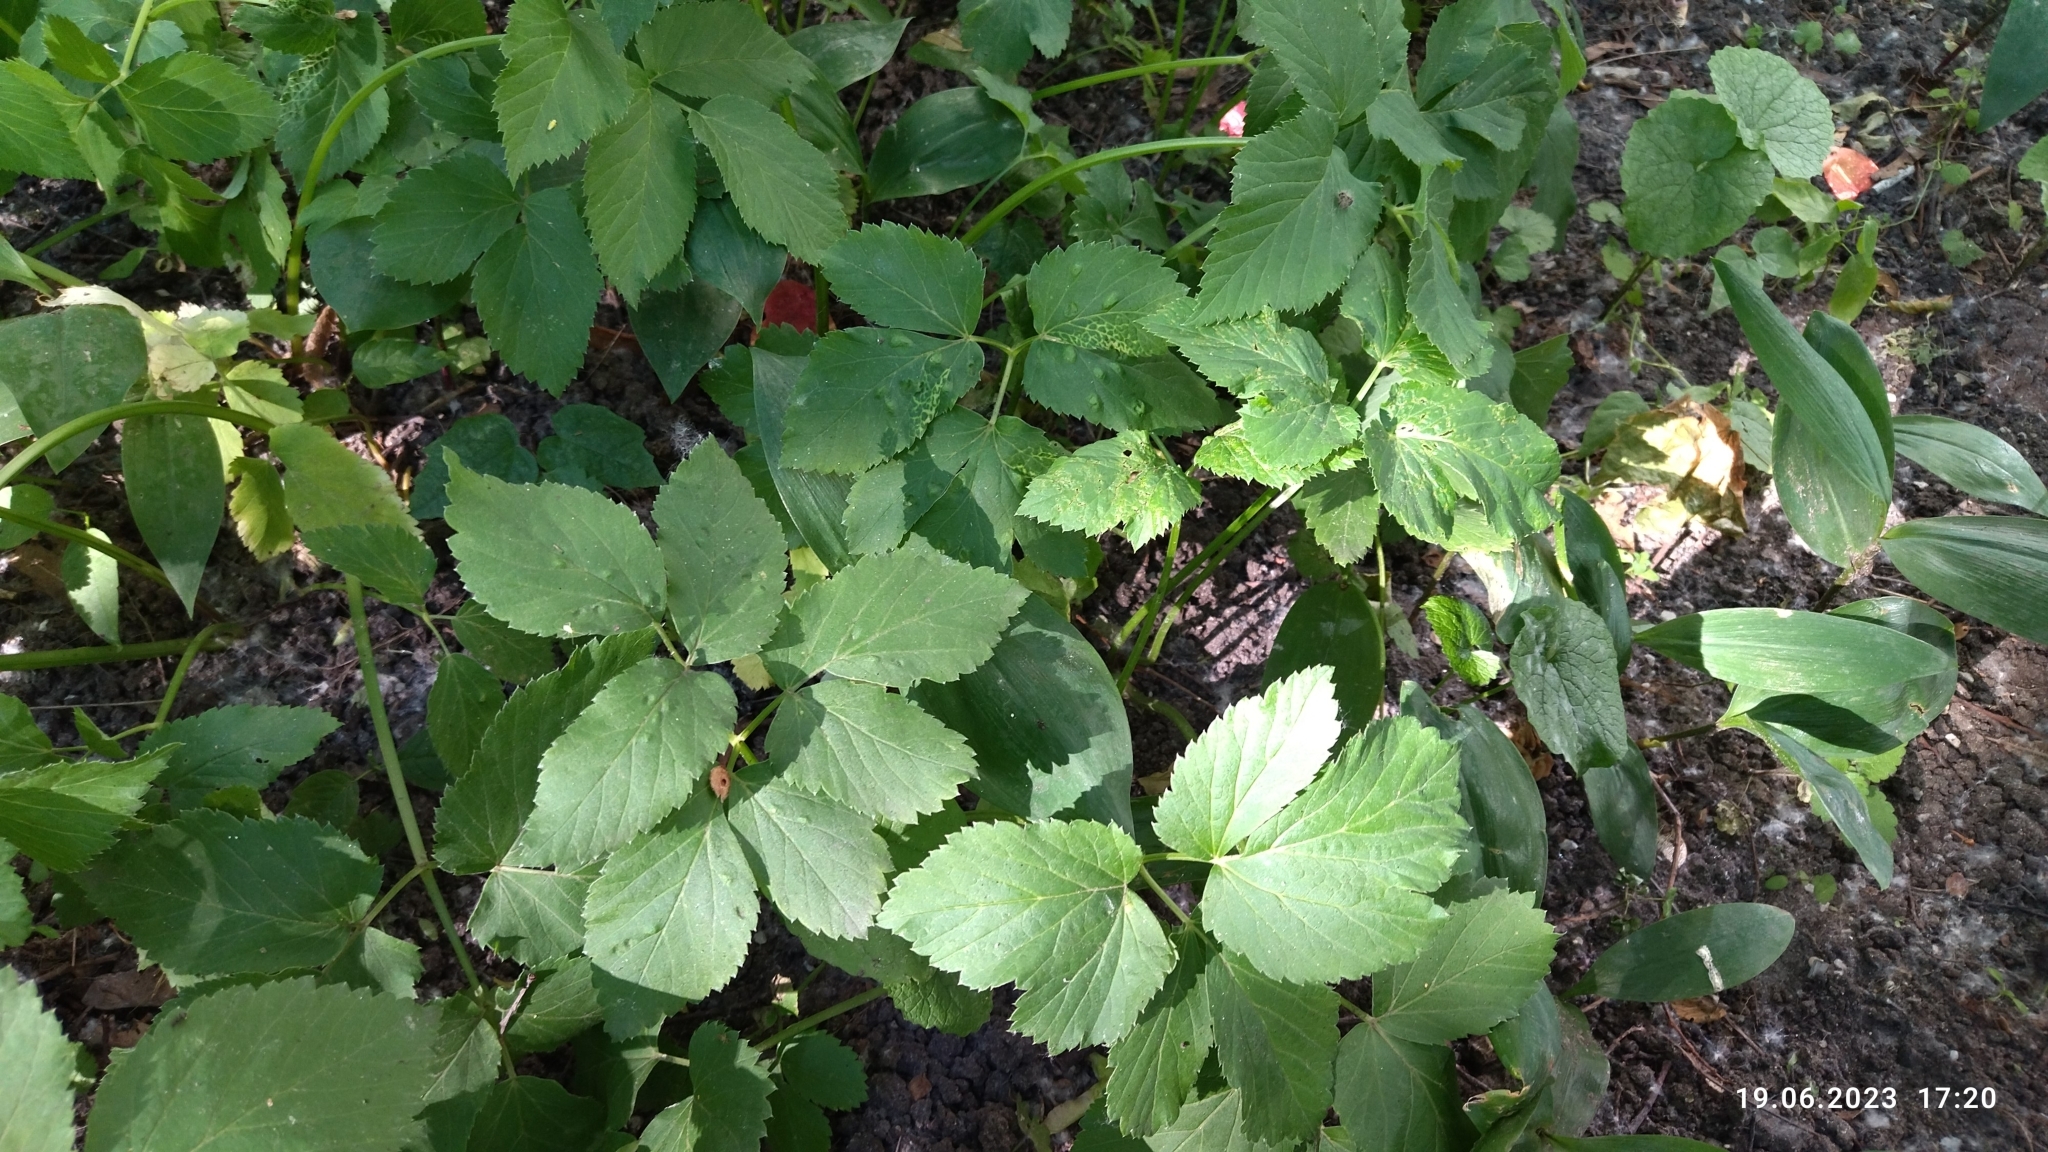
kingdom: Plantae
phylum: Tracheophyta
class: Magnoliopsida
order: Apiales
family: Apiaceae
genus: Aegopodium
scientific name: Aegopodium podagraria
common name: Ground-elder
